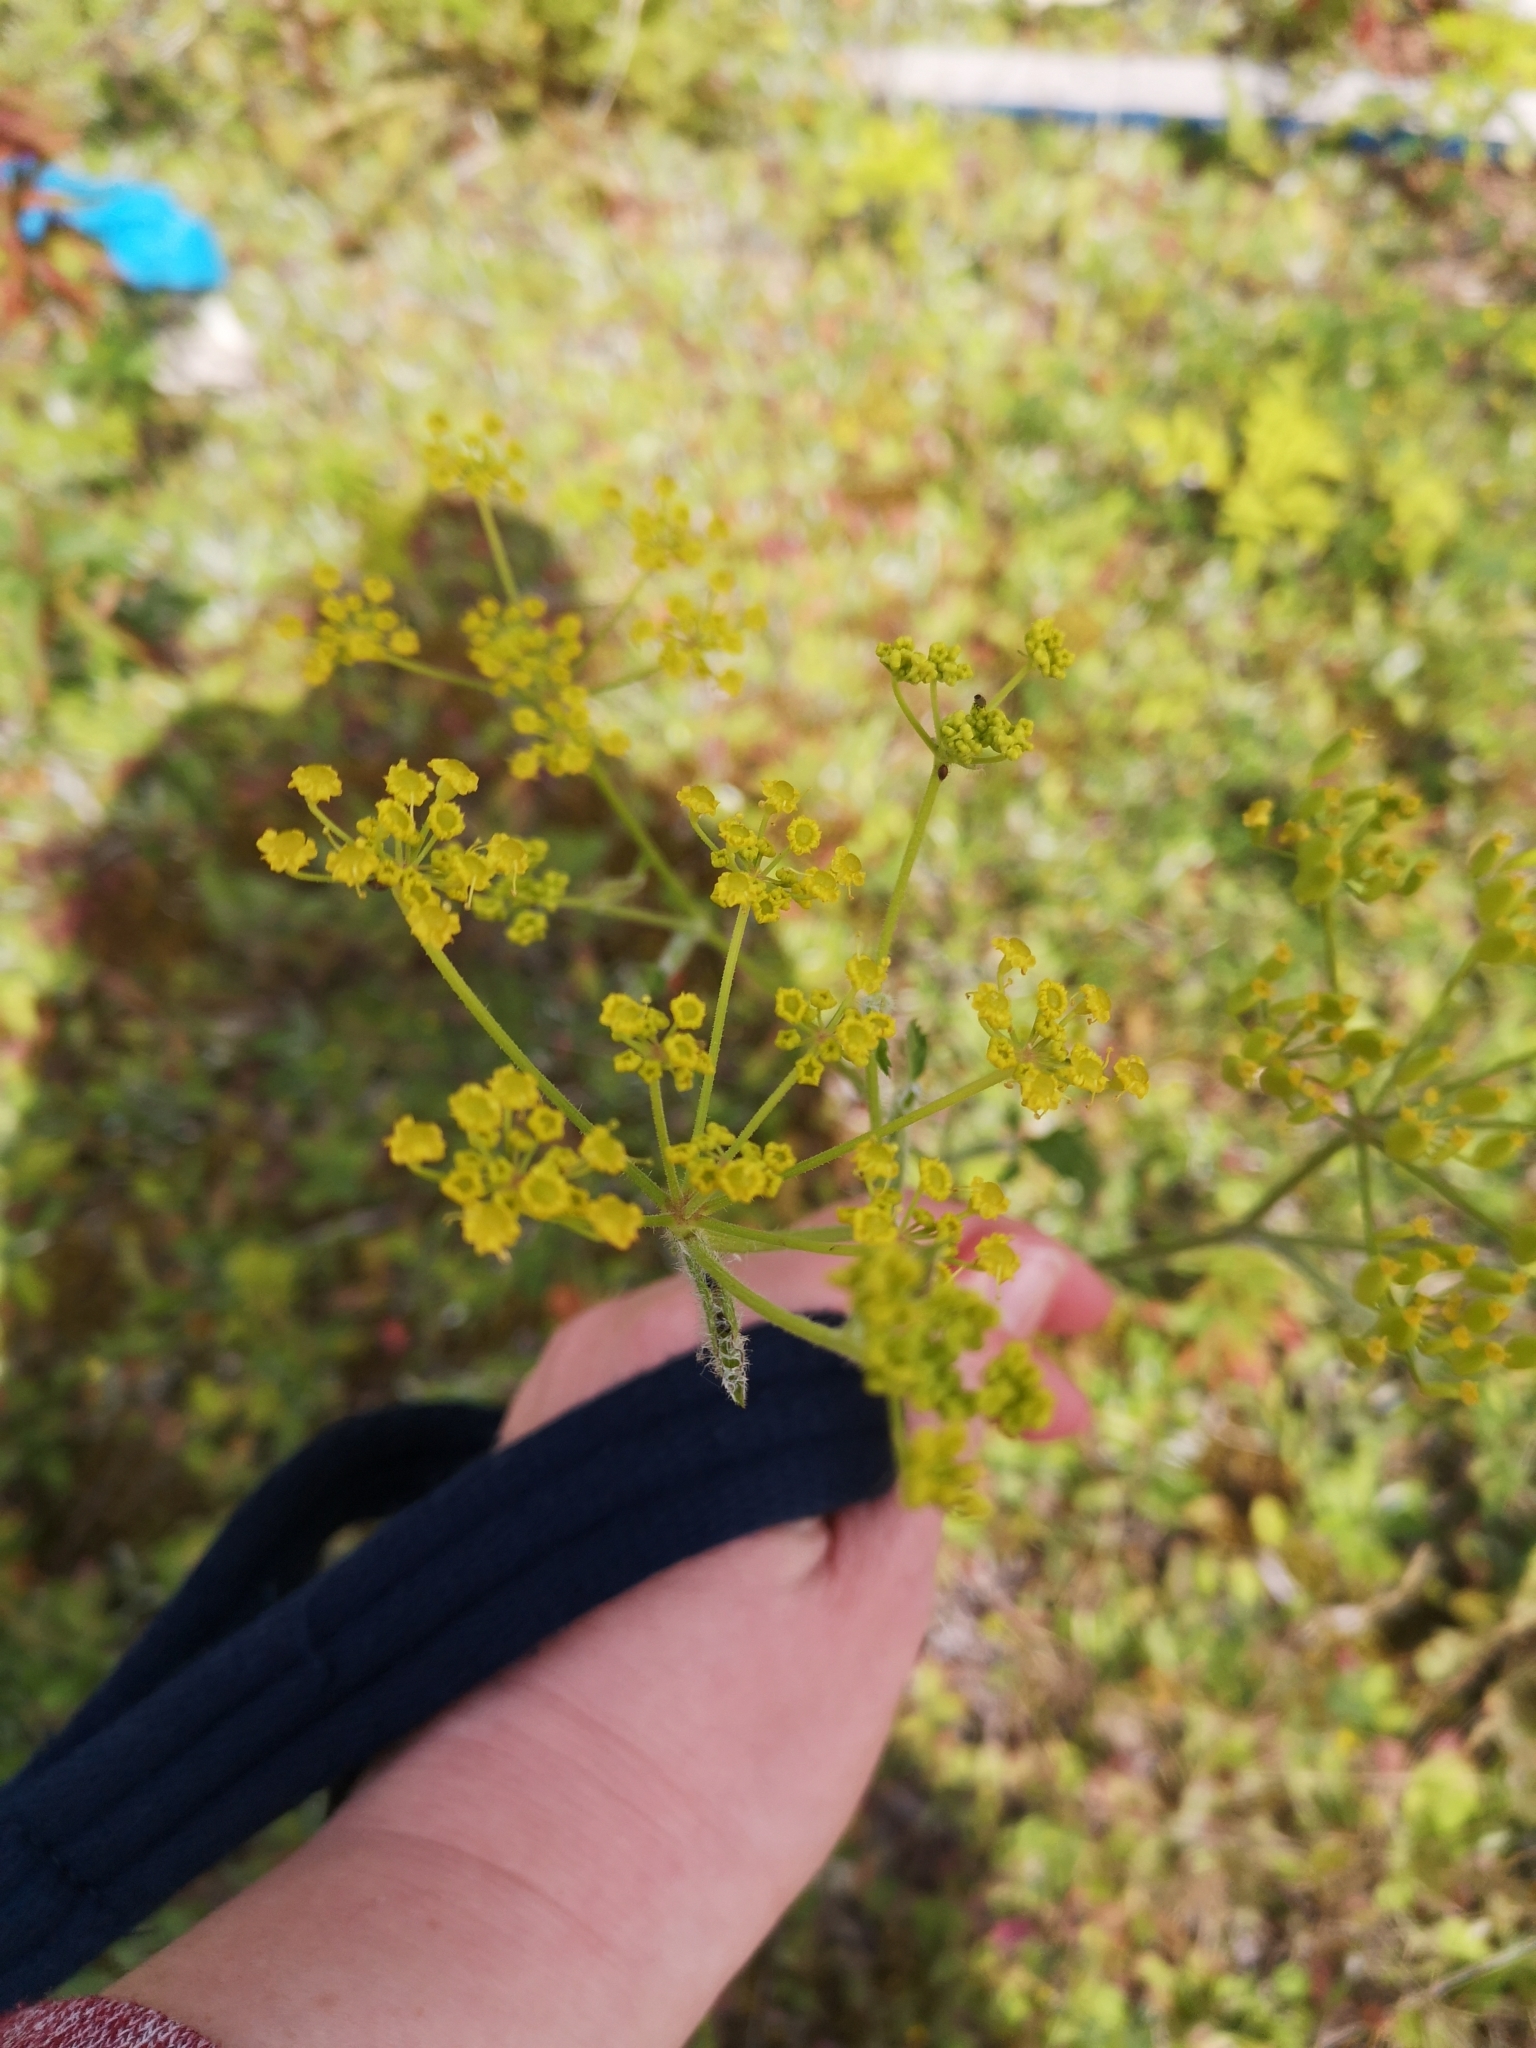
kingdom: Plantae
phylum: Tracheophyta
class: Magnoliopsida
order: Apiales
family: Apiaceae
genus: Pastinaca
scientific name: Pastinaca sativa
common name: Wild parsnip
